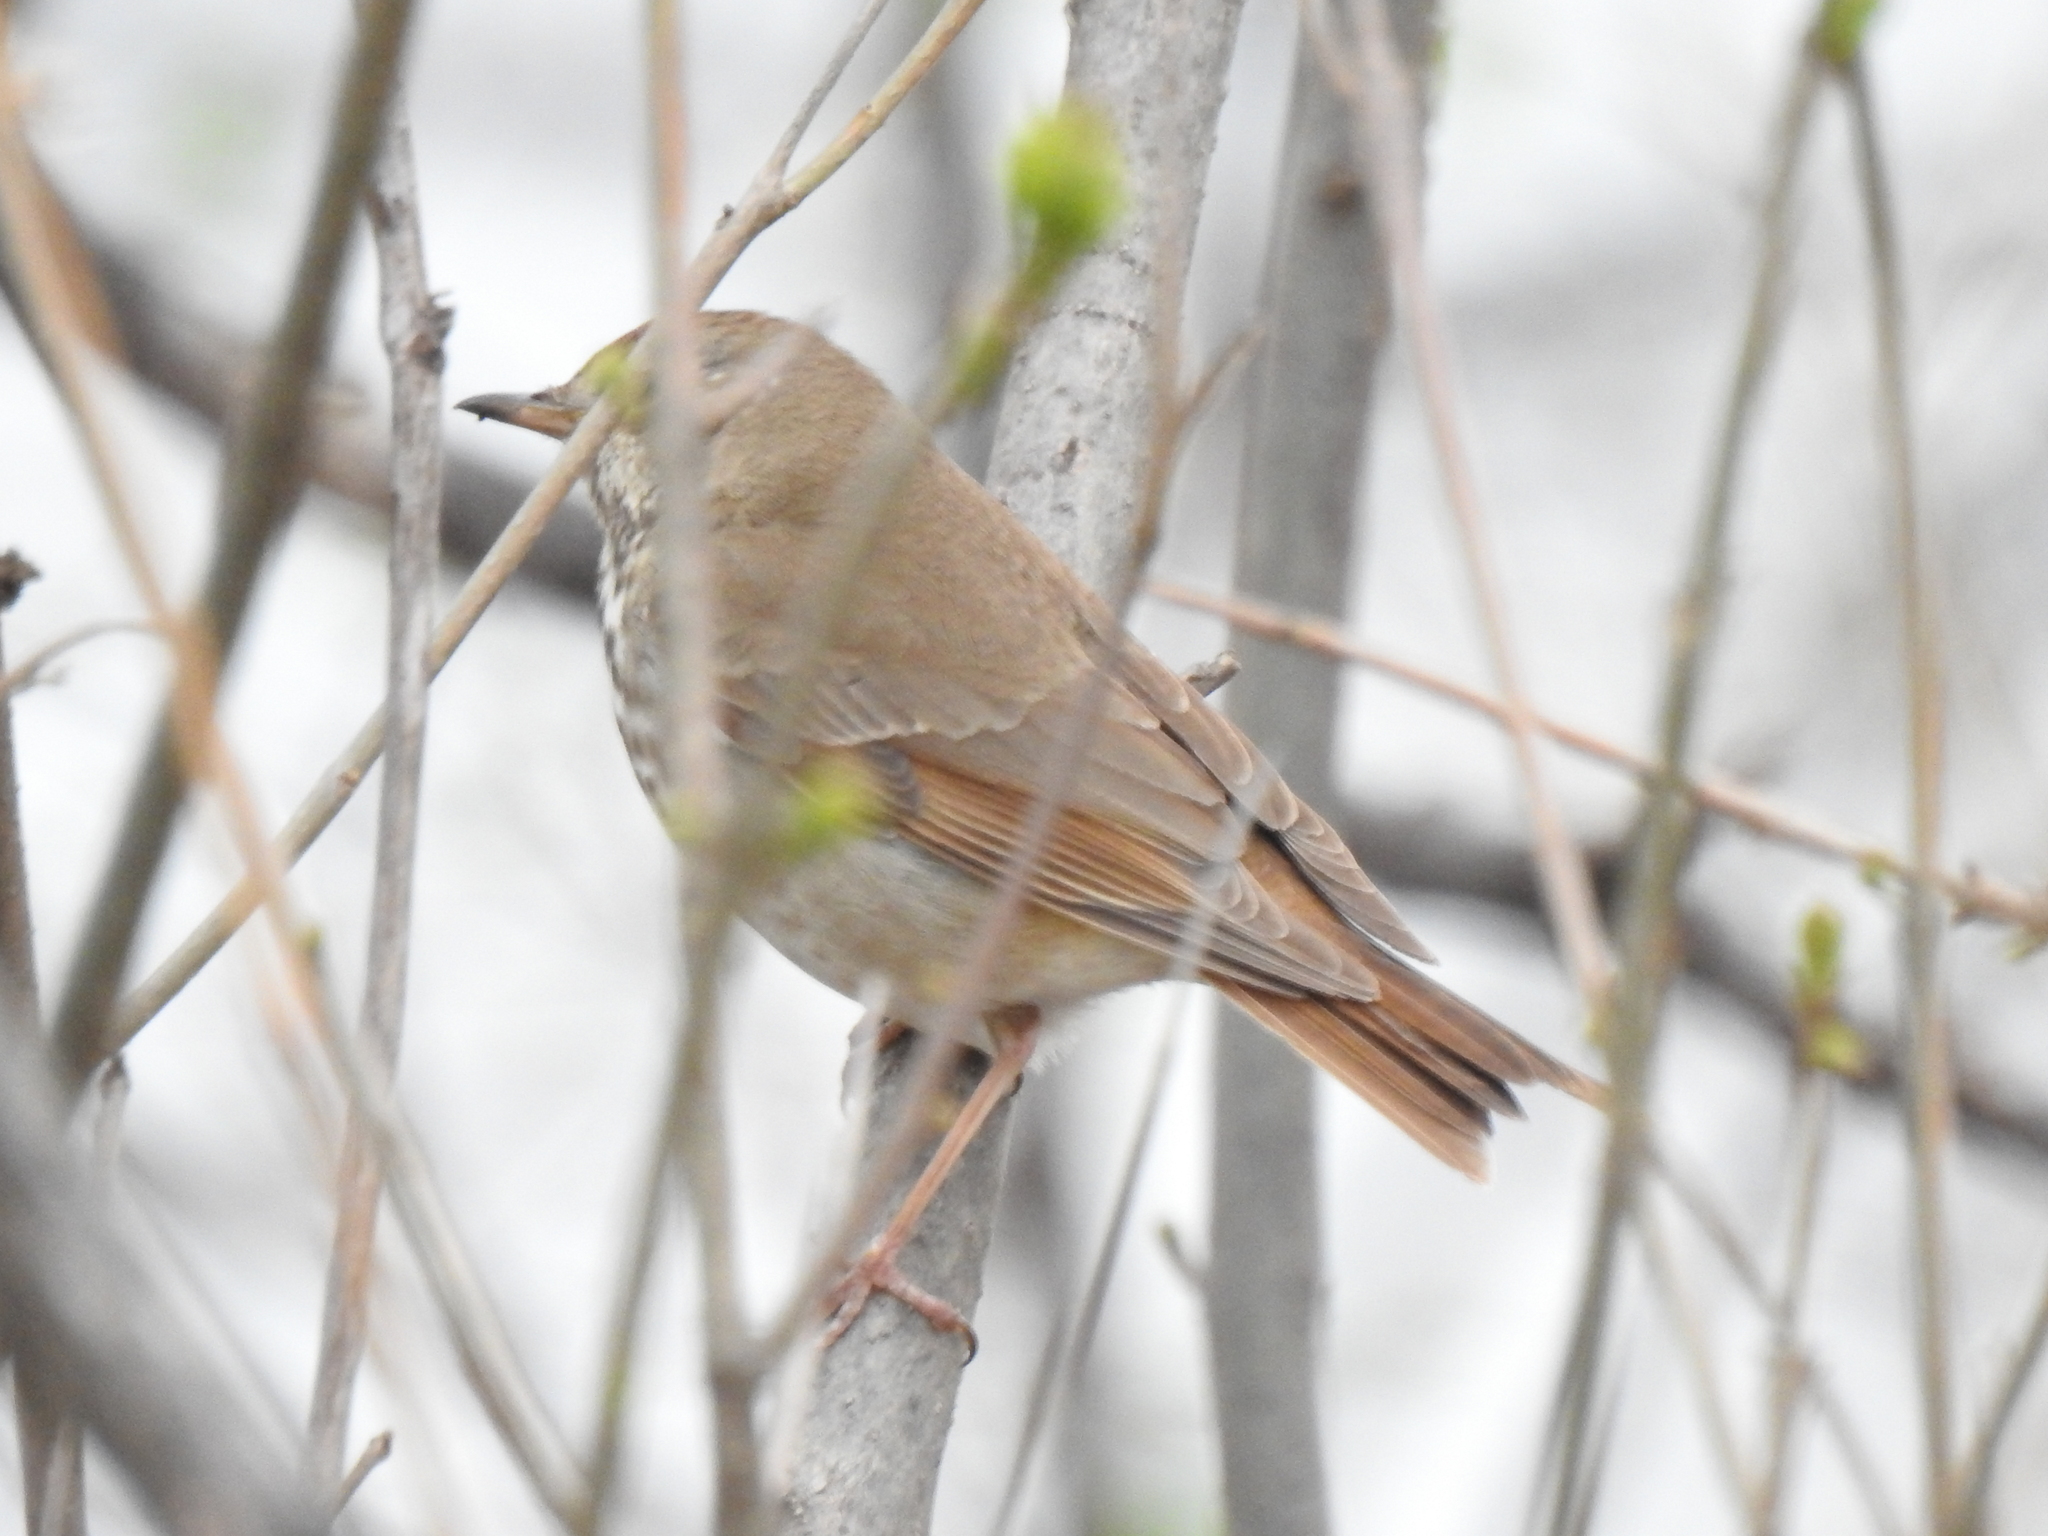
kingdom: Animalia
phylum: Chordata
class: Aves
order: Passeriformes
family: Turdidae
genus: Catharus
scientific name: Catharus guttatus
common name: Hermit thrush
